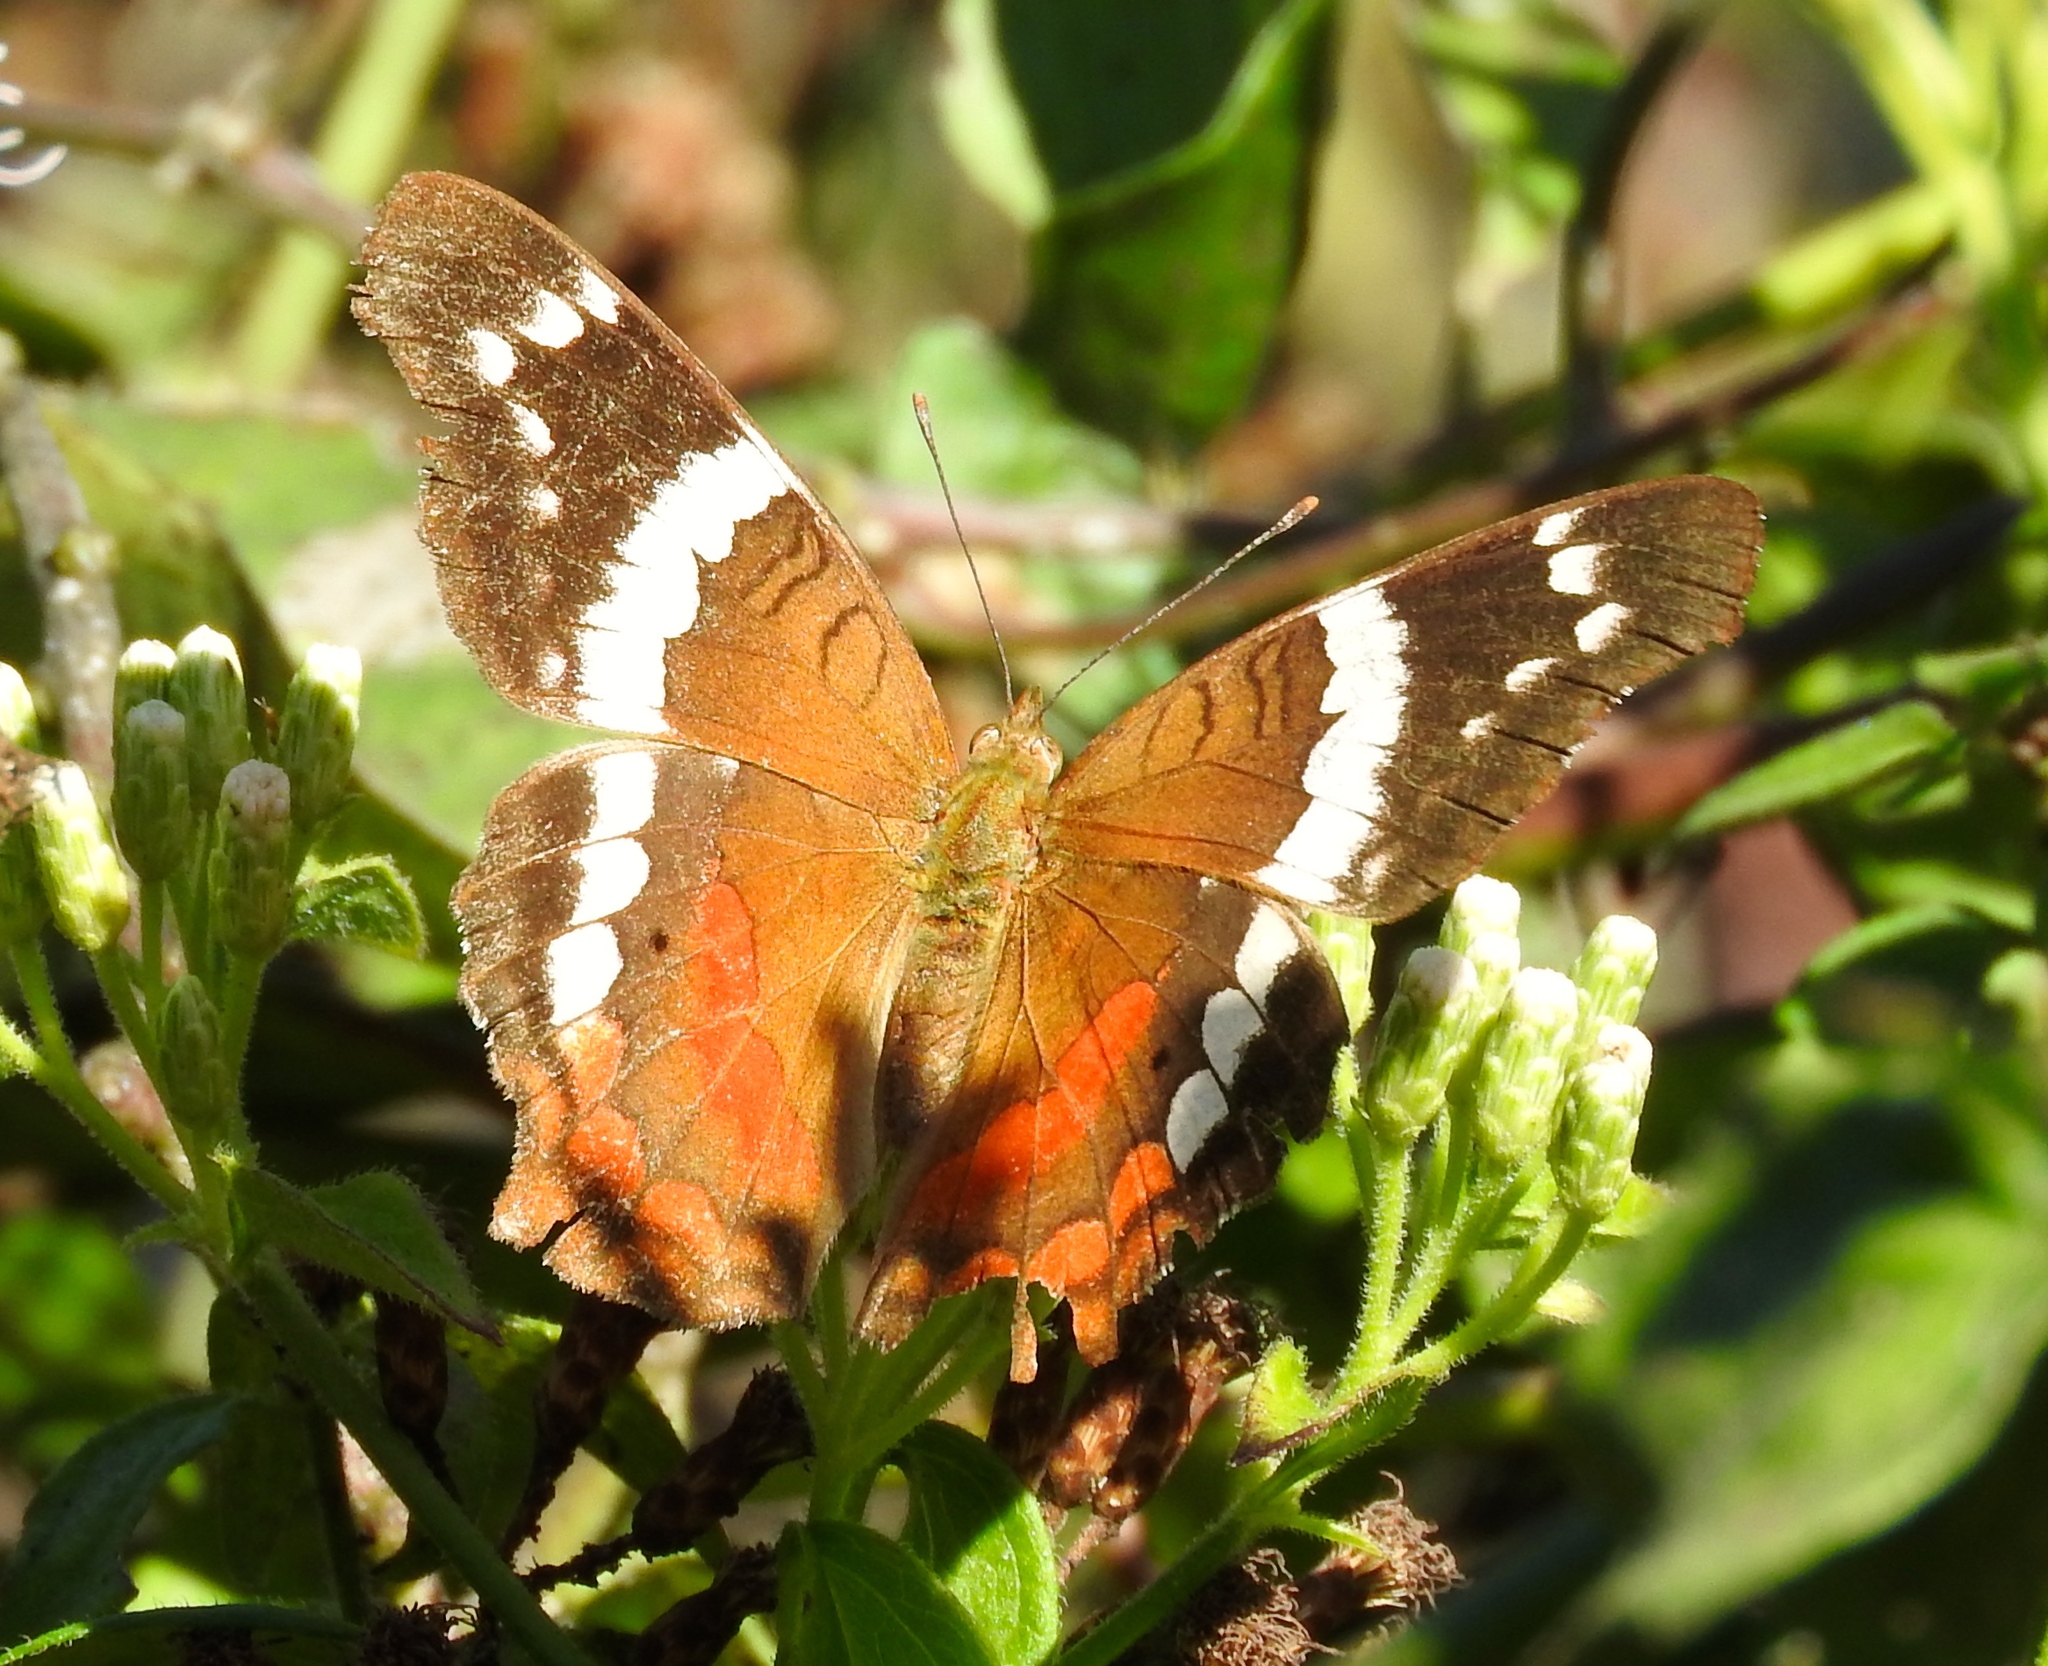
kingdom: Animalia
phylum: Arthropoda
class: Insecta
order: Lepidoptera
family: Nymphalidae
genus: Anartia
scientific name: Anartia fatima
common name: Banded peacock
